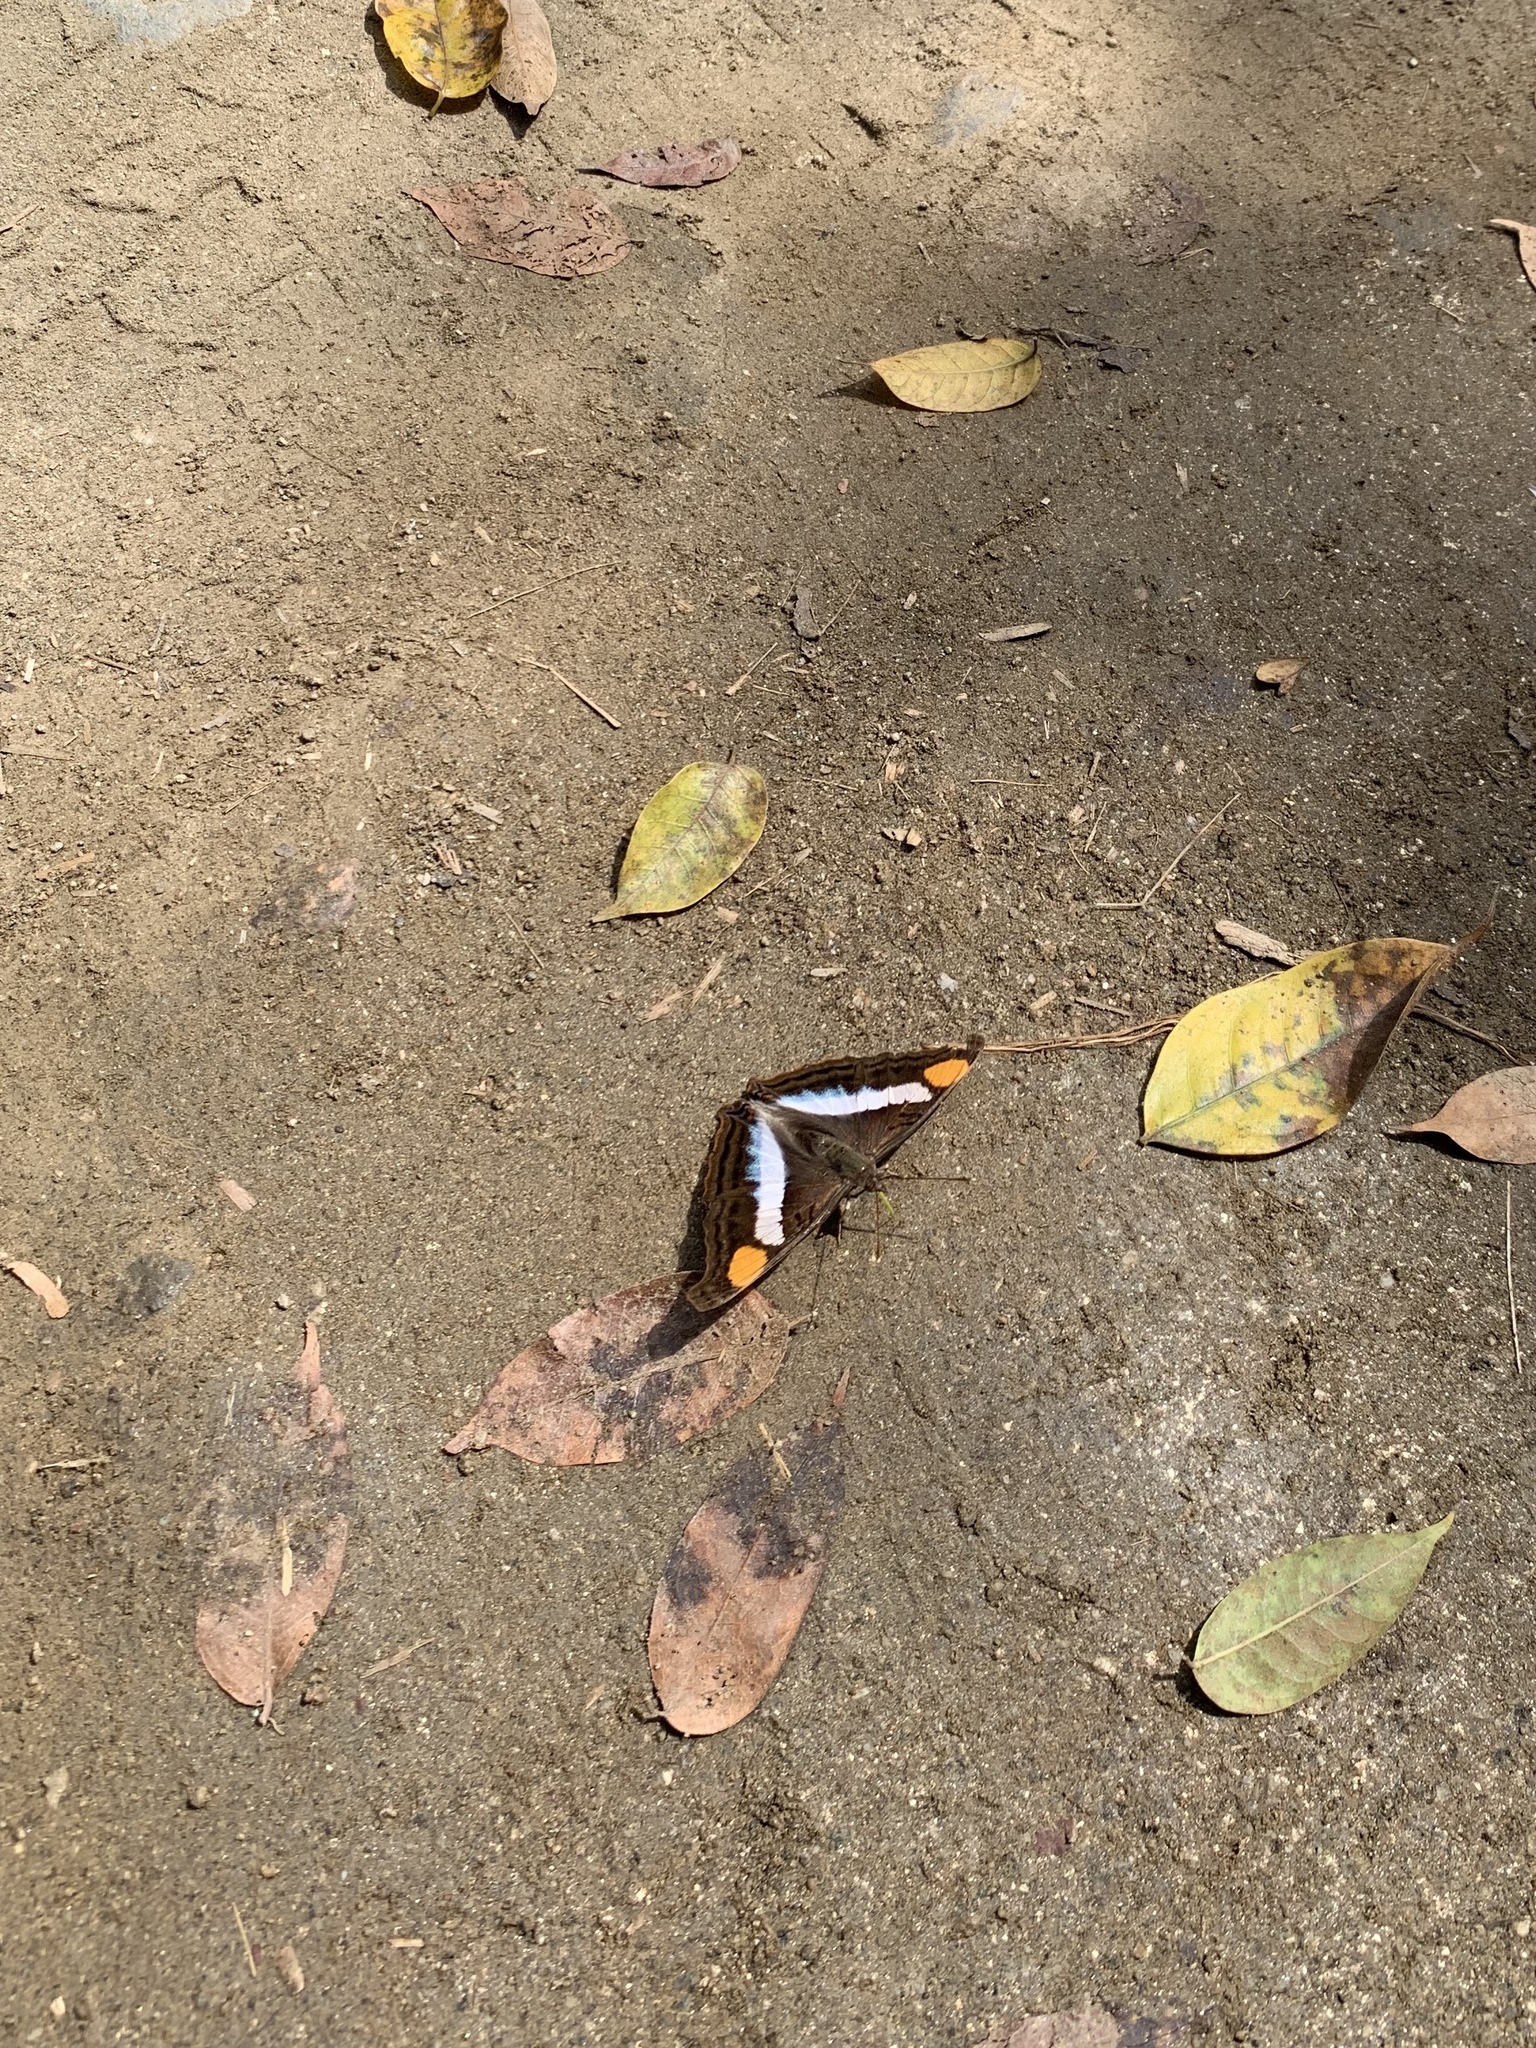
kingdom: Animalia
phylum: Arthropoda
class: Insecta
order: Lepidoptera
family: Nymphalidae
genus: Doxocopa
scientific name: Doxocopa laure
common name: Silver emperor
